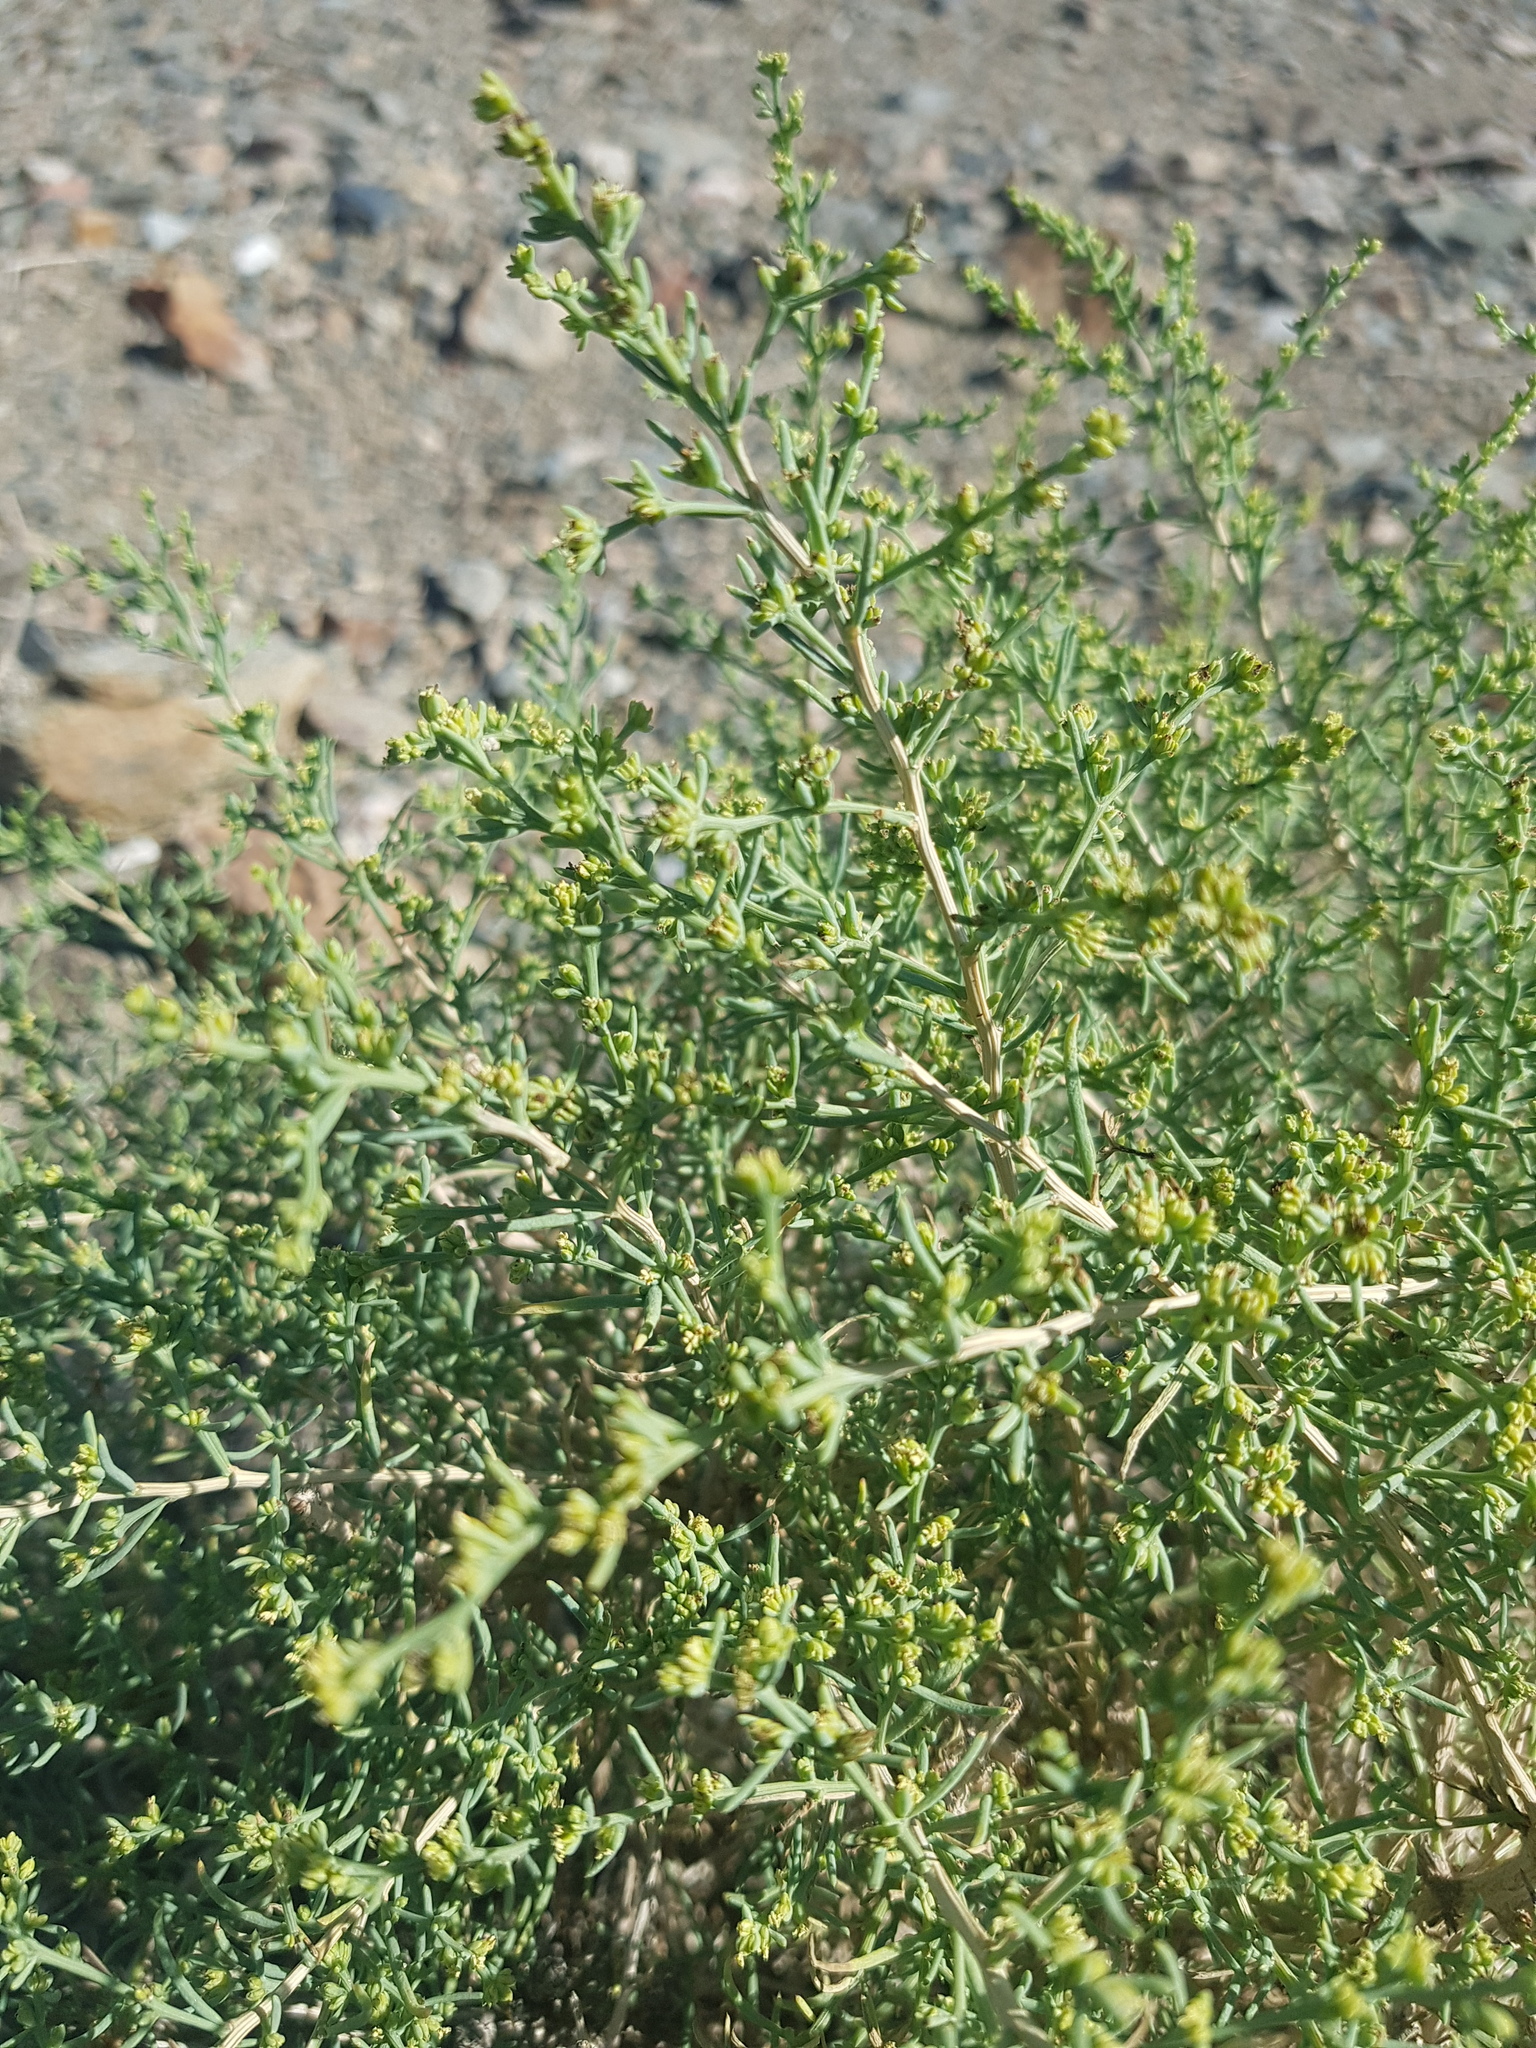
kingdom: Plantae
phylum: Tracheophyta
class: Magnoliopsida
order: Caryophyllales
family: Amaranthaceae
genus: Sympegma
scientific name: Sympegma regelii
